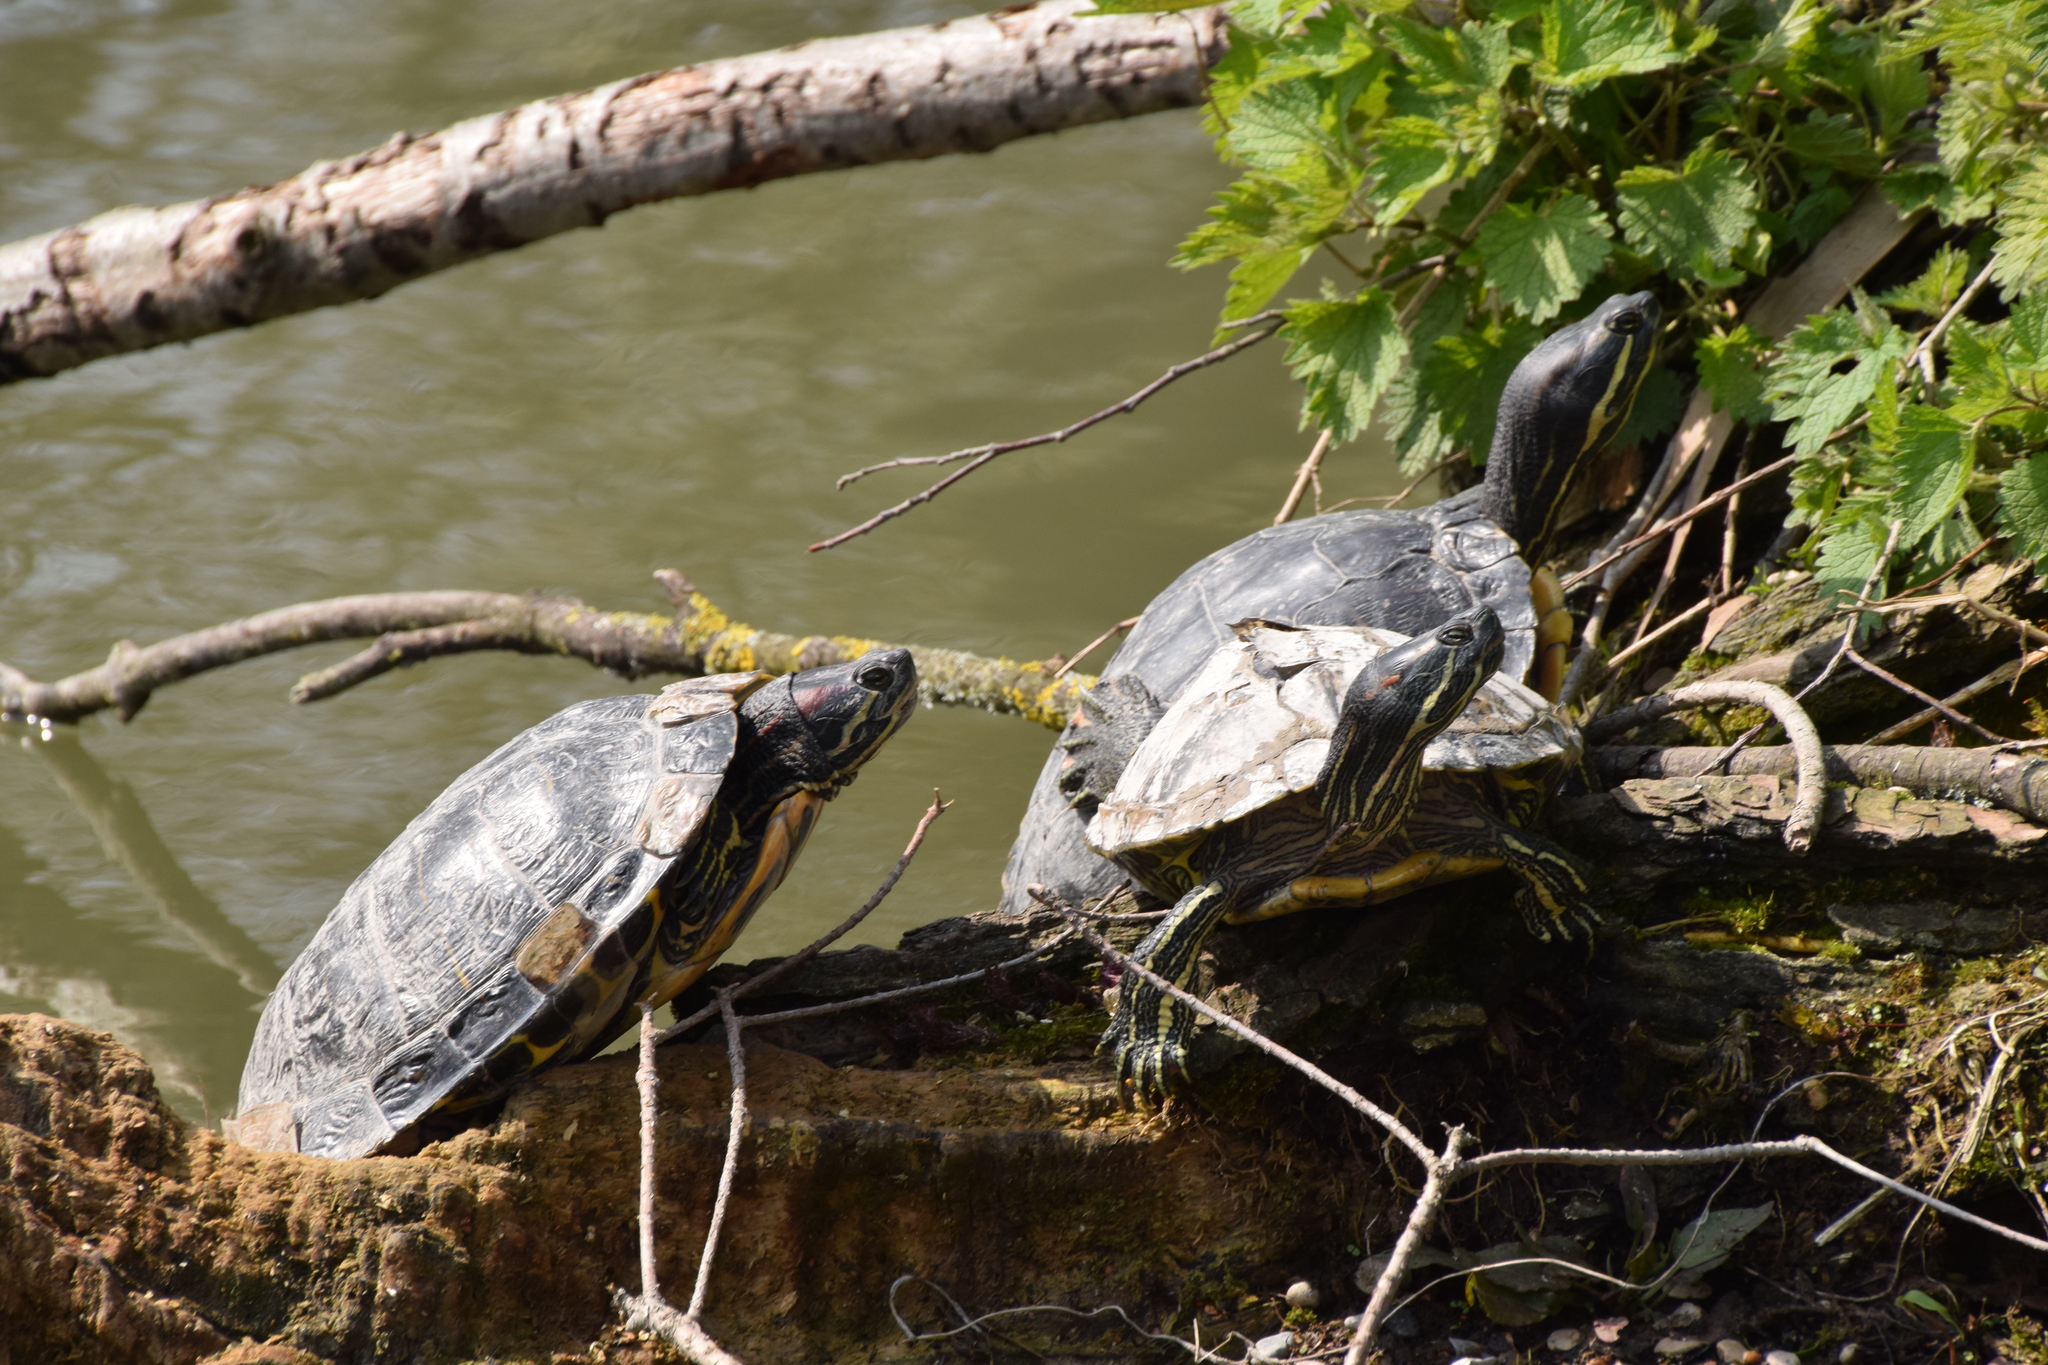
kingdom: Animalia
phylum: Chordata
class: Testudines
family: Emydidae
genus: Trachemys
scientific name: Trachemys scripta
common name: Slider
